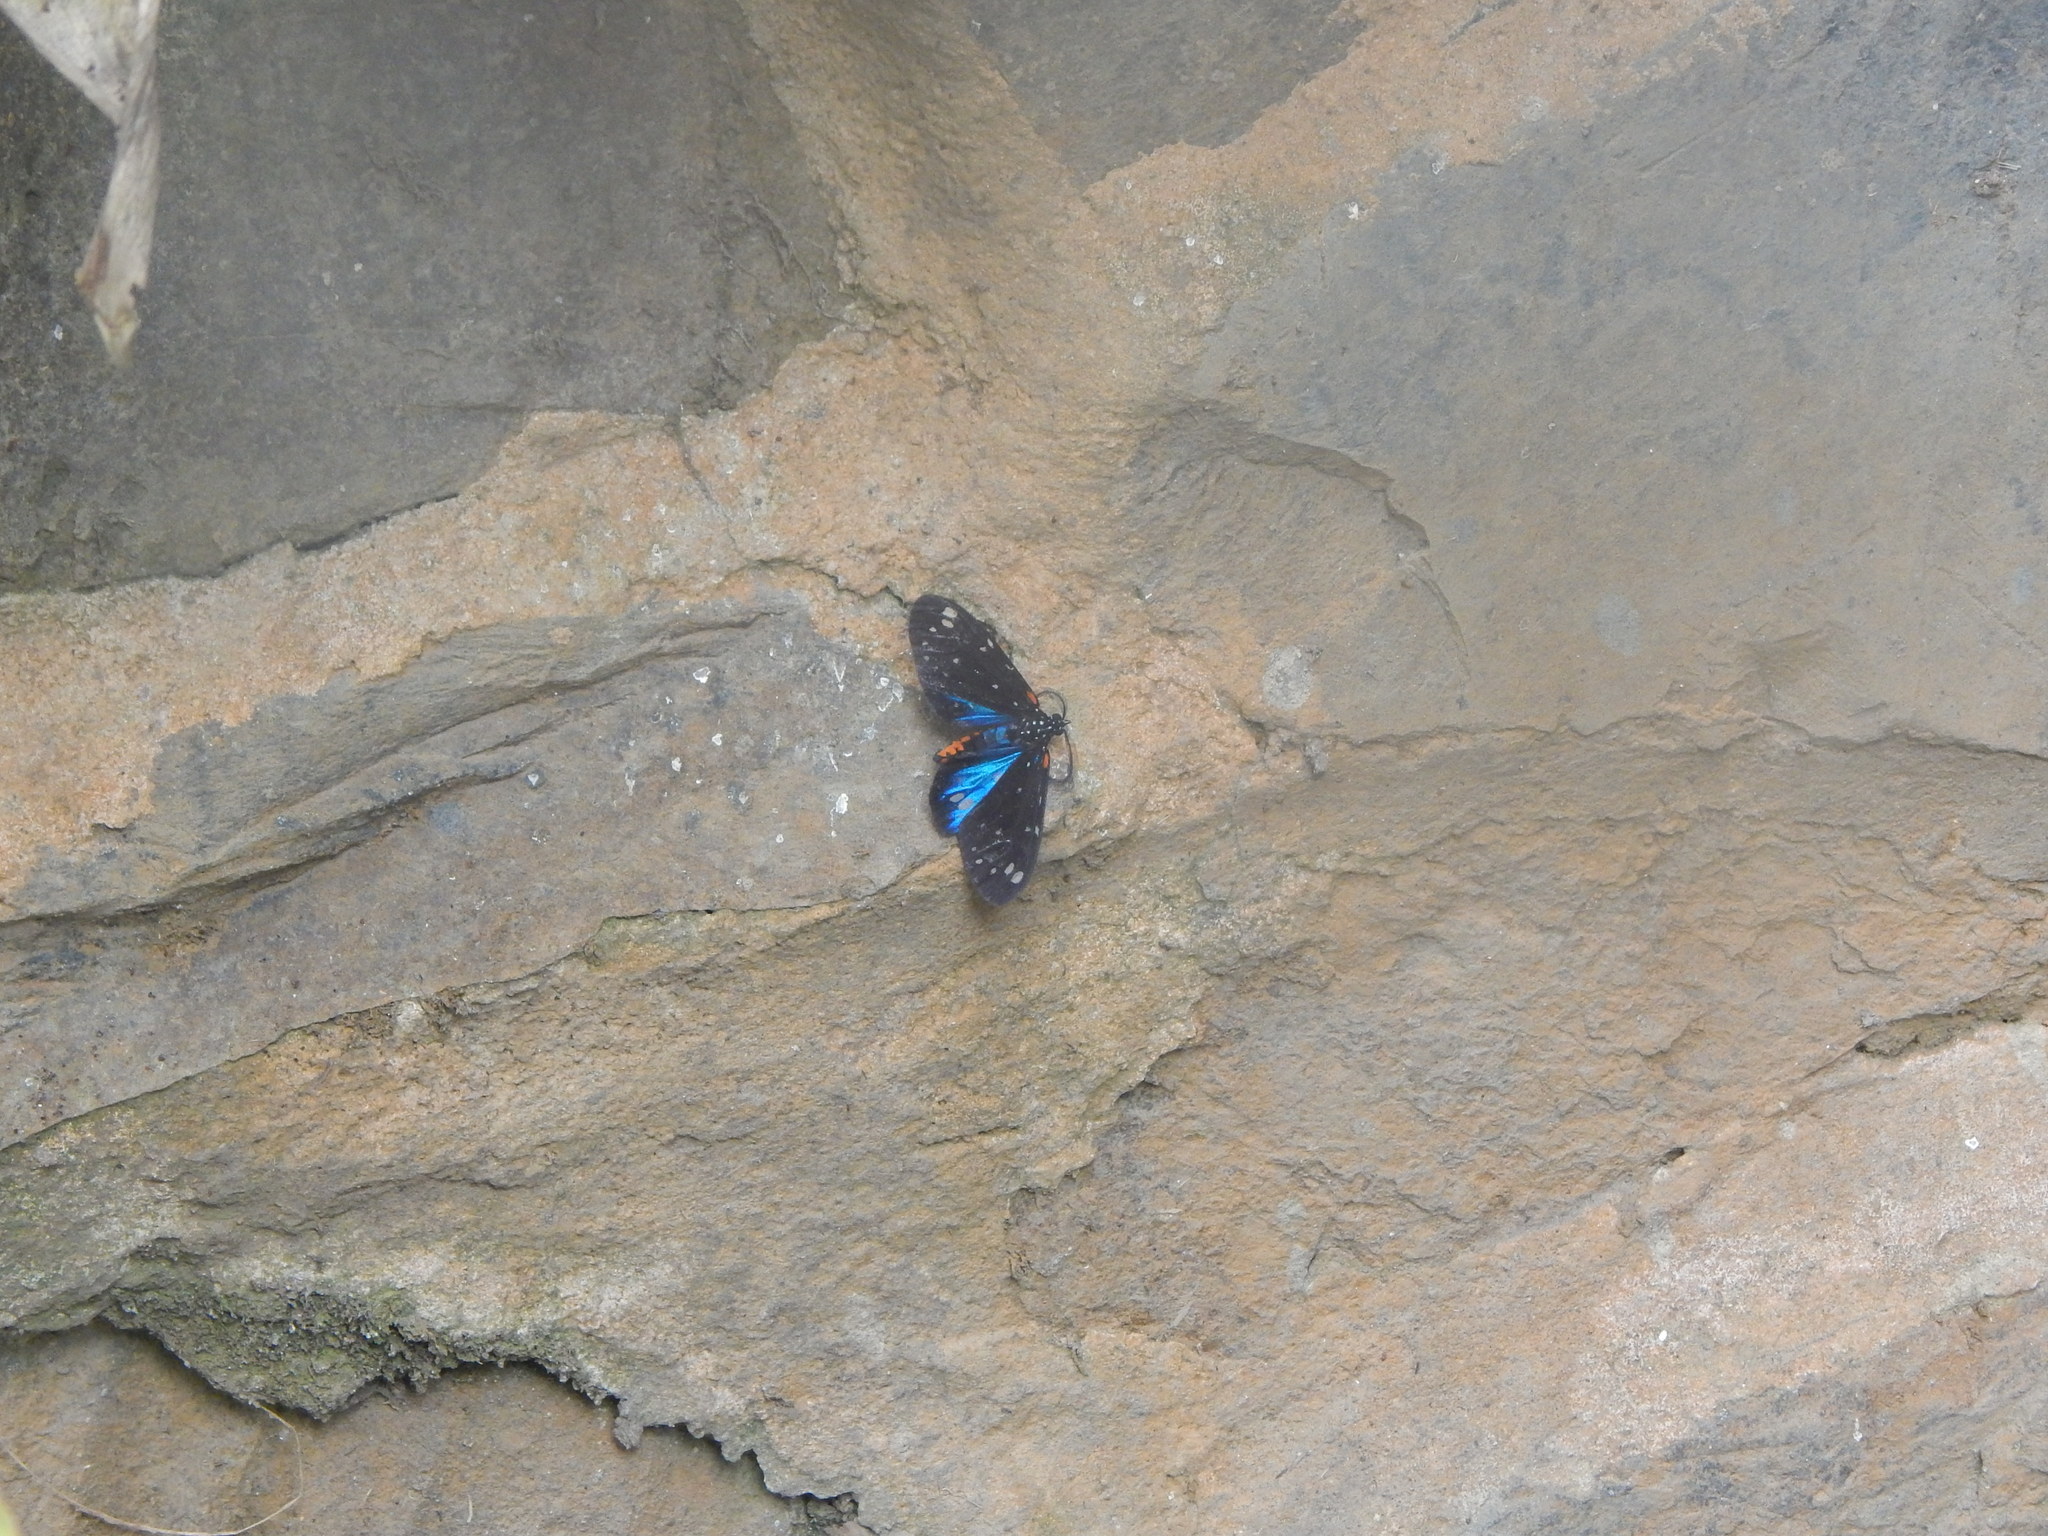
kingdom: Animalia
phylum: Arthropoda
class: Insecta
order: Lepidoptera
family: Erebidae
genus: Ctenuchidia
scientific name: Ctenuchidia subcyanea
